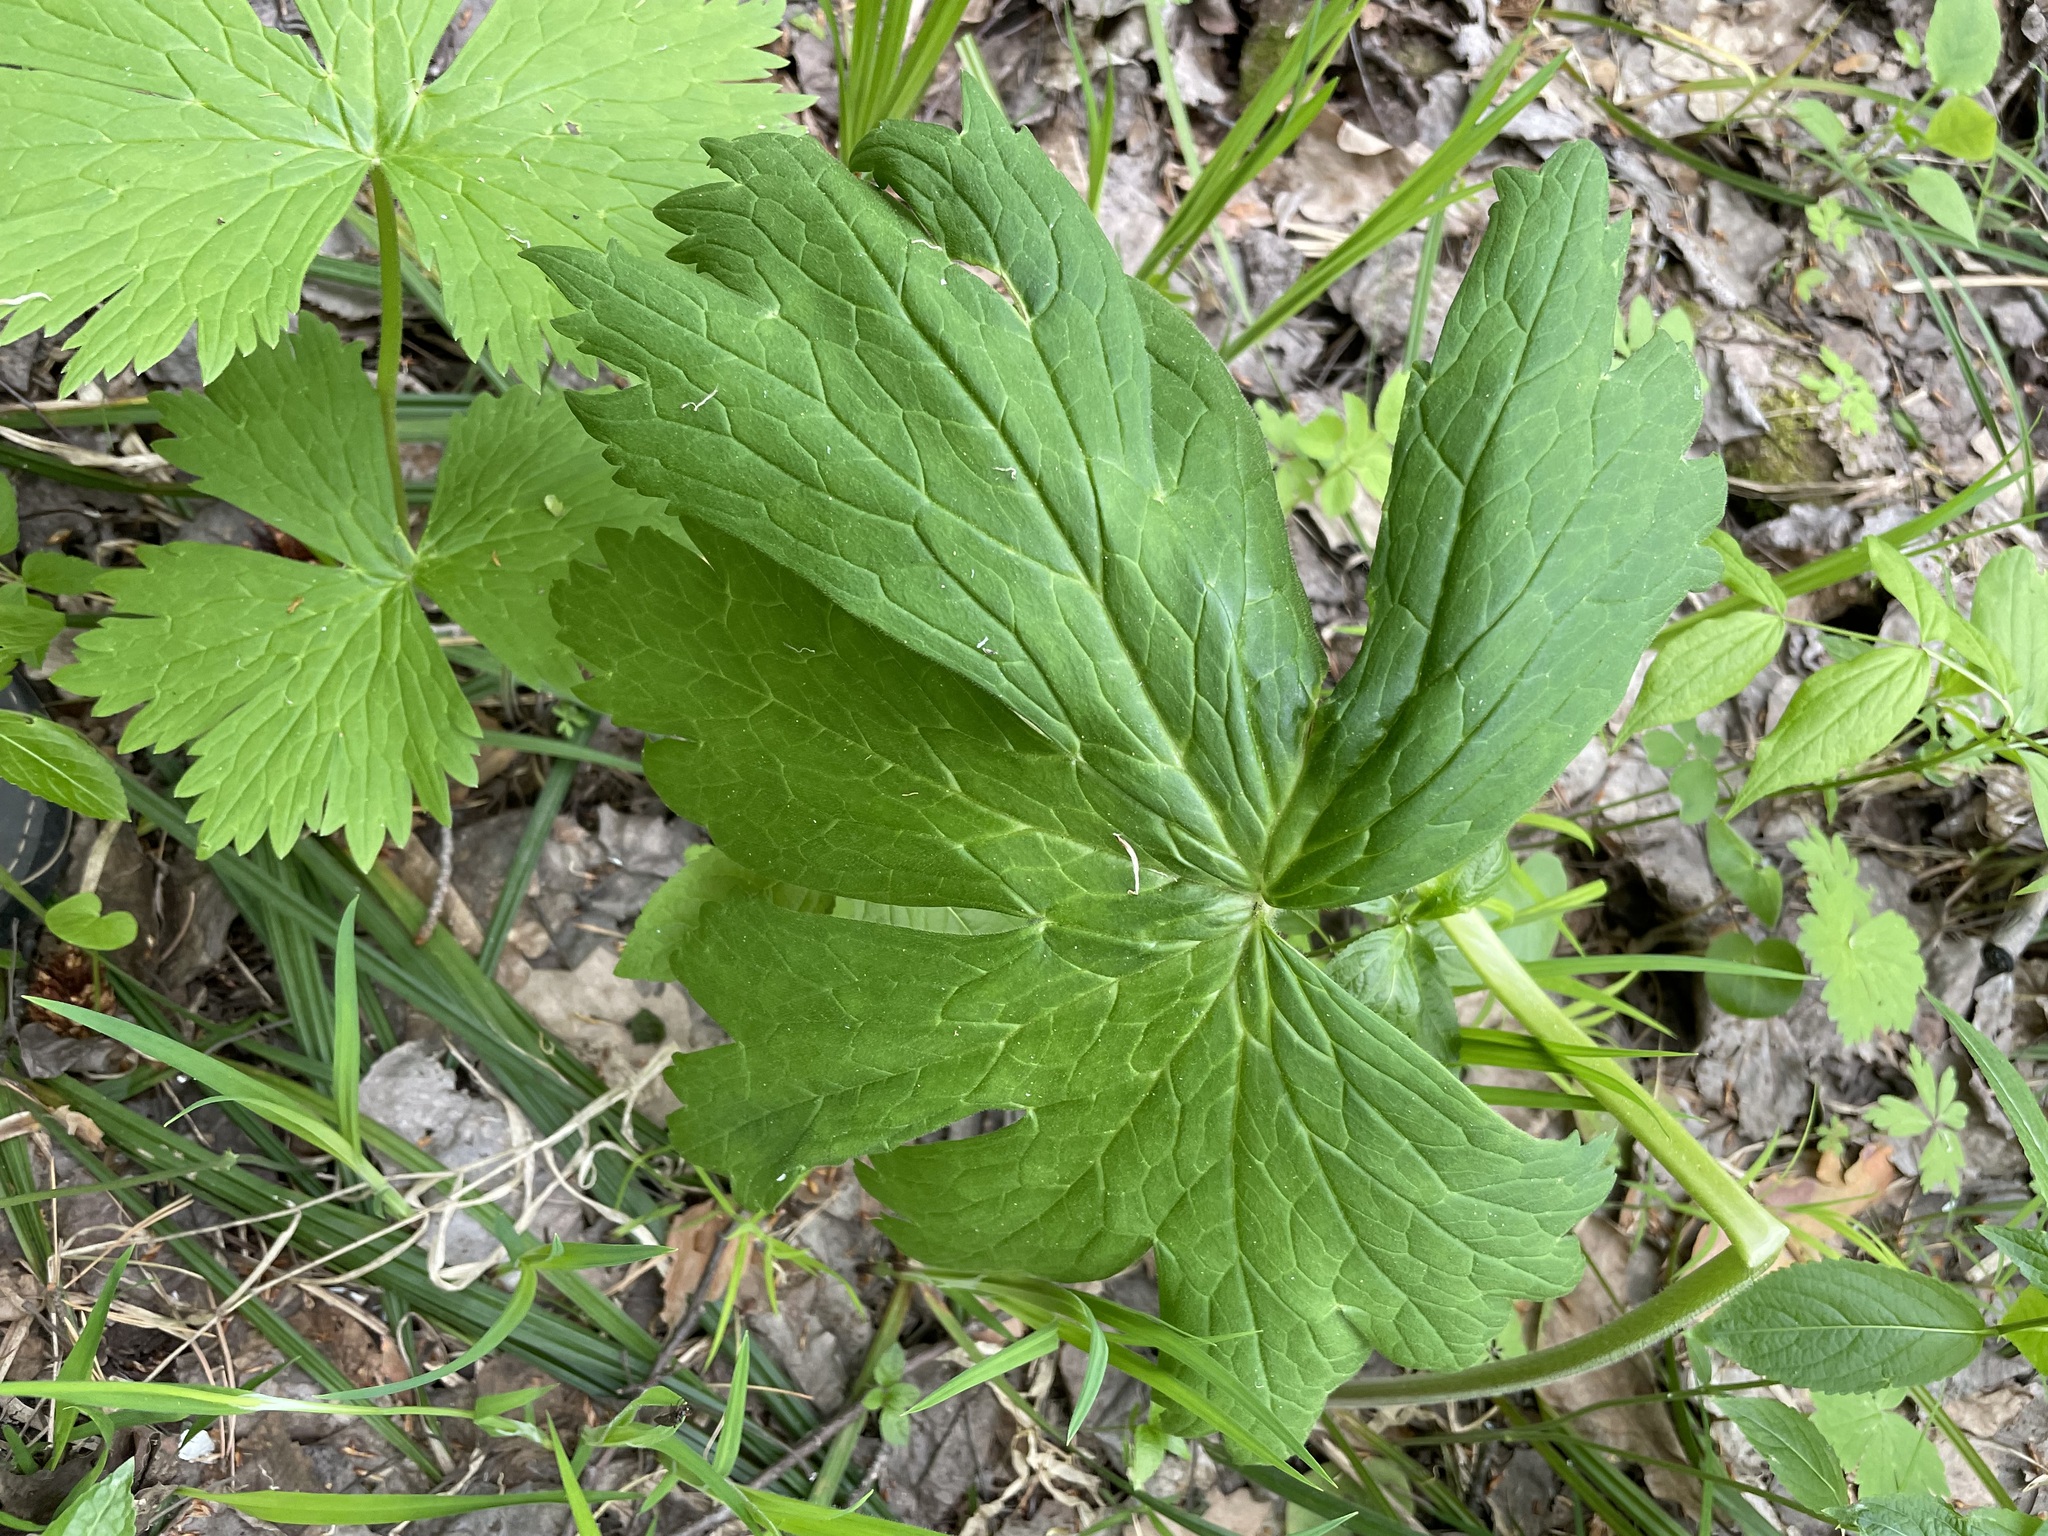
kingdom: Plantae
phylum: Tracheophyta
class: Magnoliopsida
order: Ranunculales
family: Ranunculaceae
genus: Aconitum
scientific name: Aconitum septentrionale
